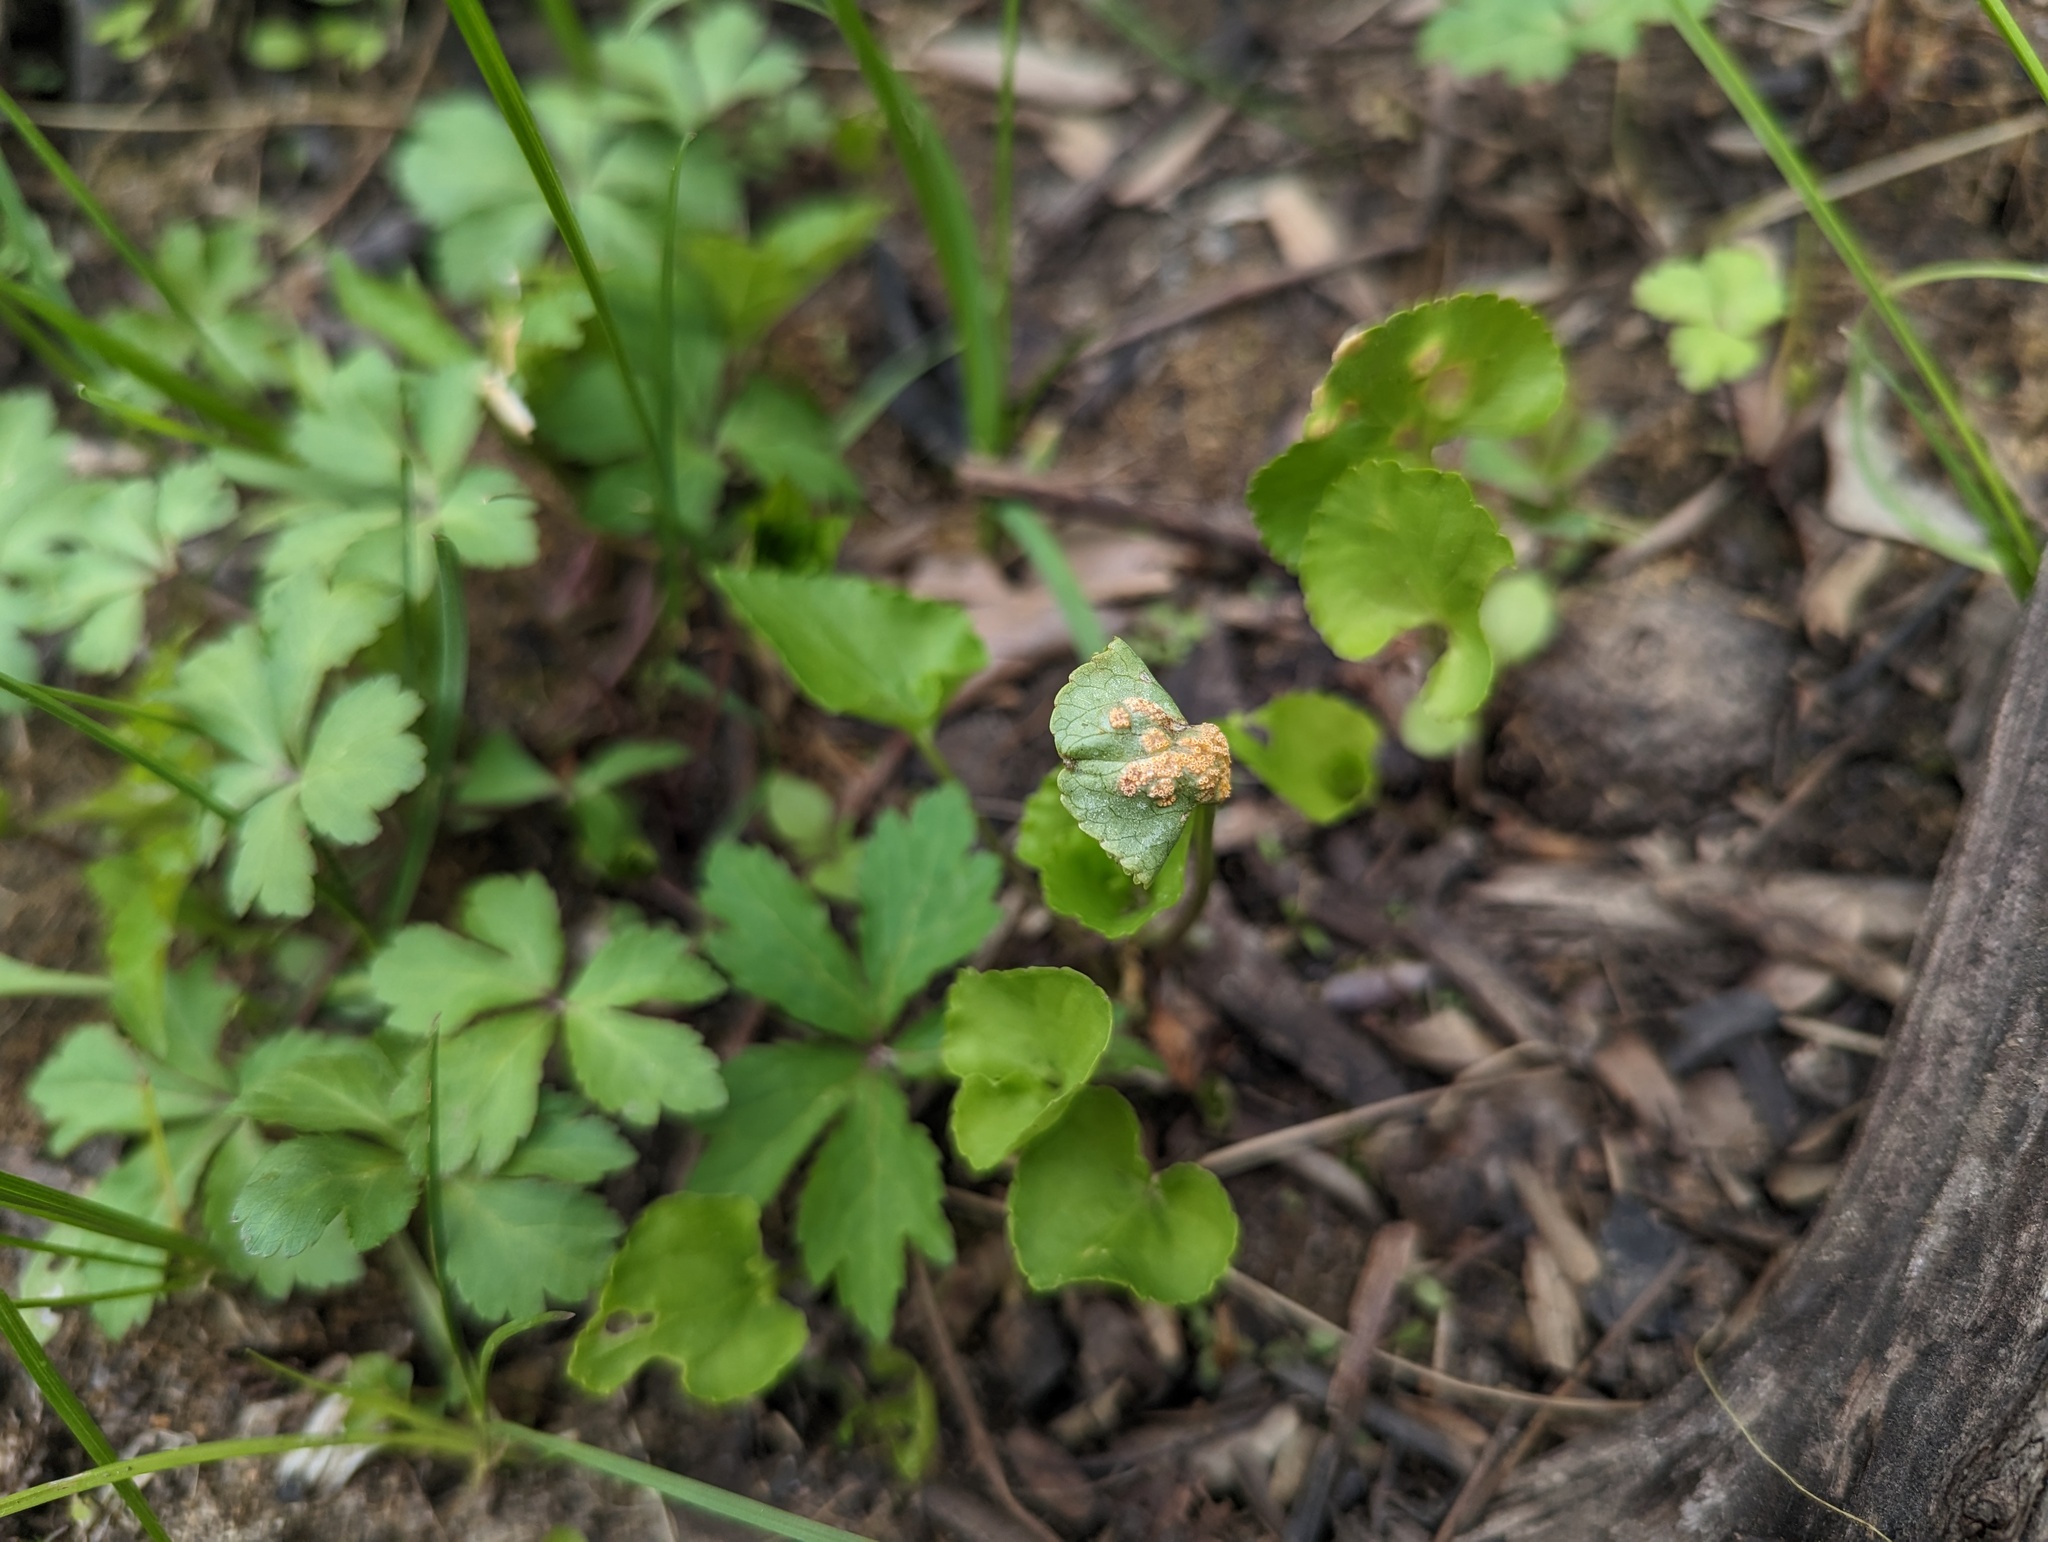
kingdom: Fungi
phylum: Basidiomycota
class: Pucciniomycetes
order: Pucciniales
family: Pucciniaceae
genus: Puccinia
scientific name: Puccinia violae
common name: Violet rust
